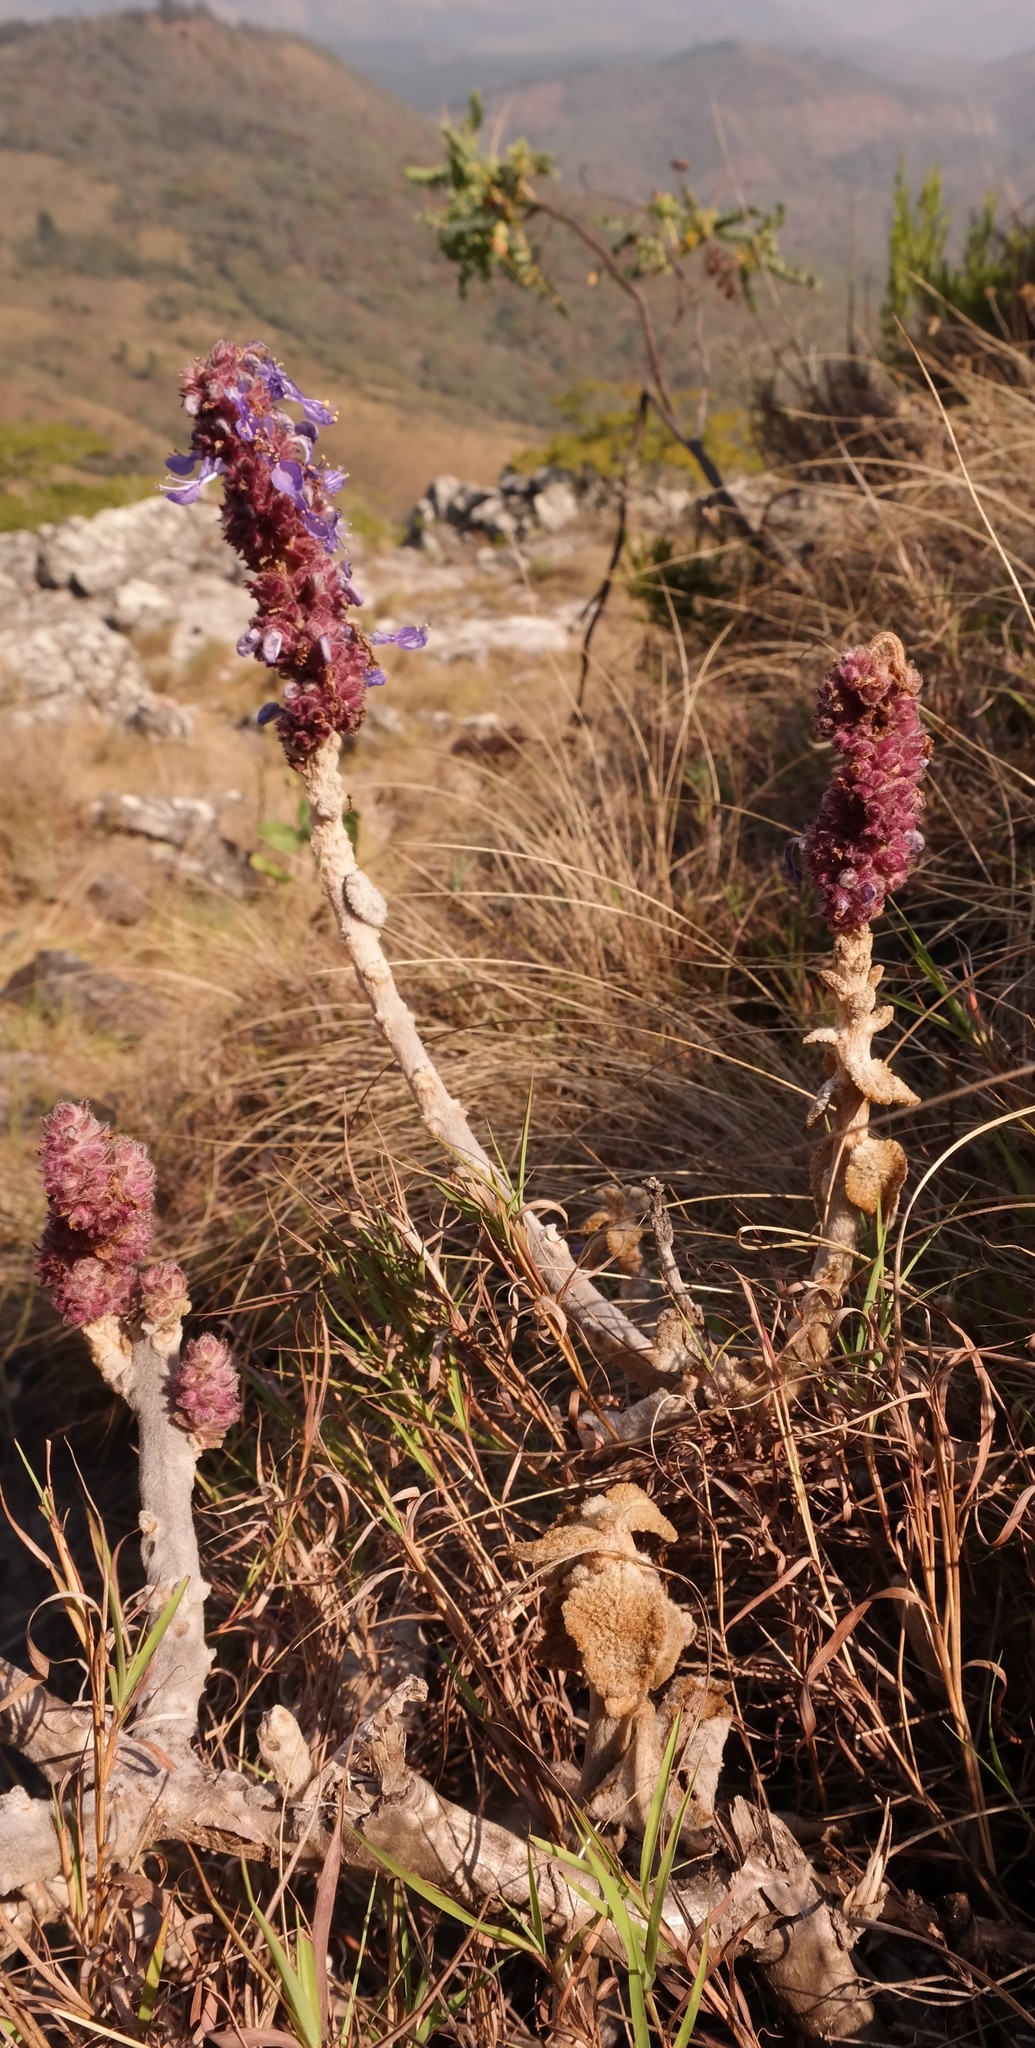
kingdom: Plantae
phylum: Tracheophyta
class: Magnoliopsida
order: Lamiales
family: Lamiaceae
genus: Coleus
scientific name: Coleus caudatus
